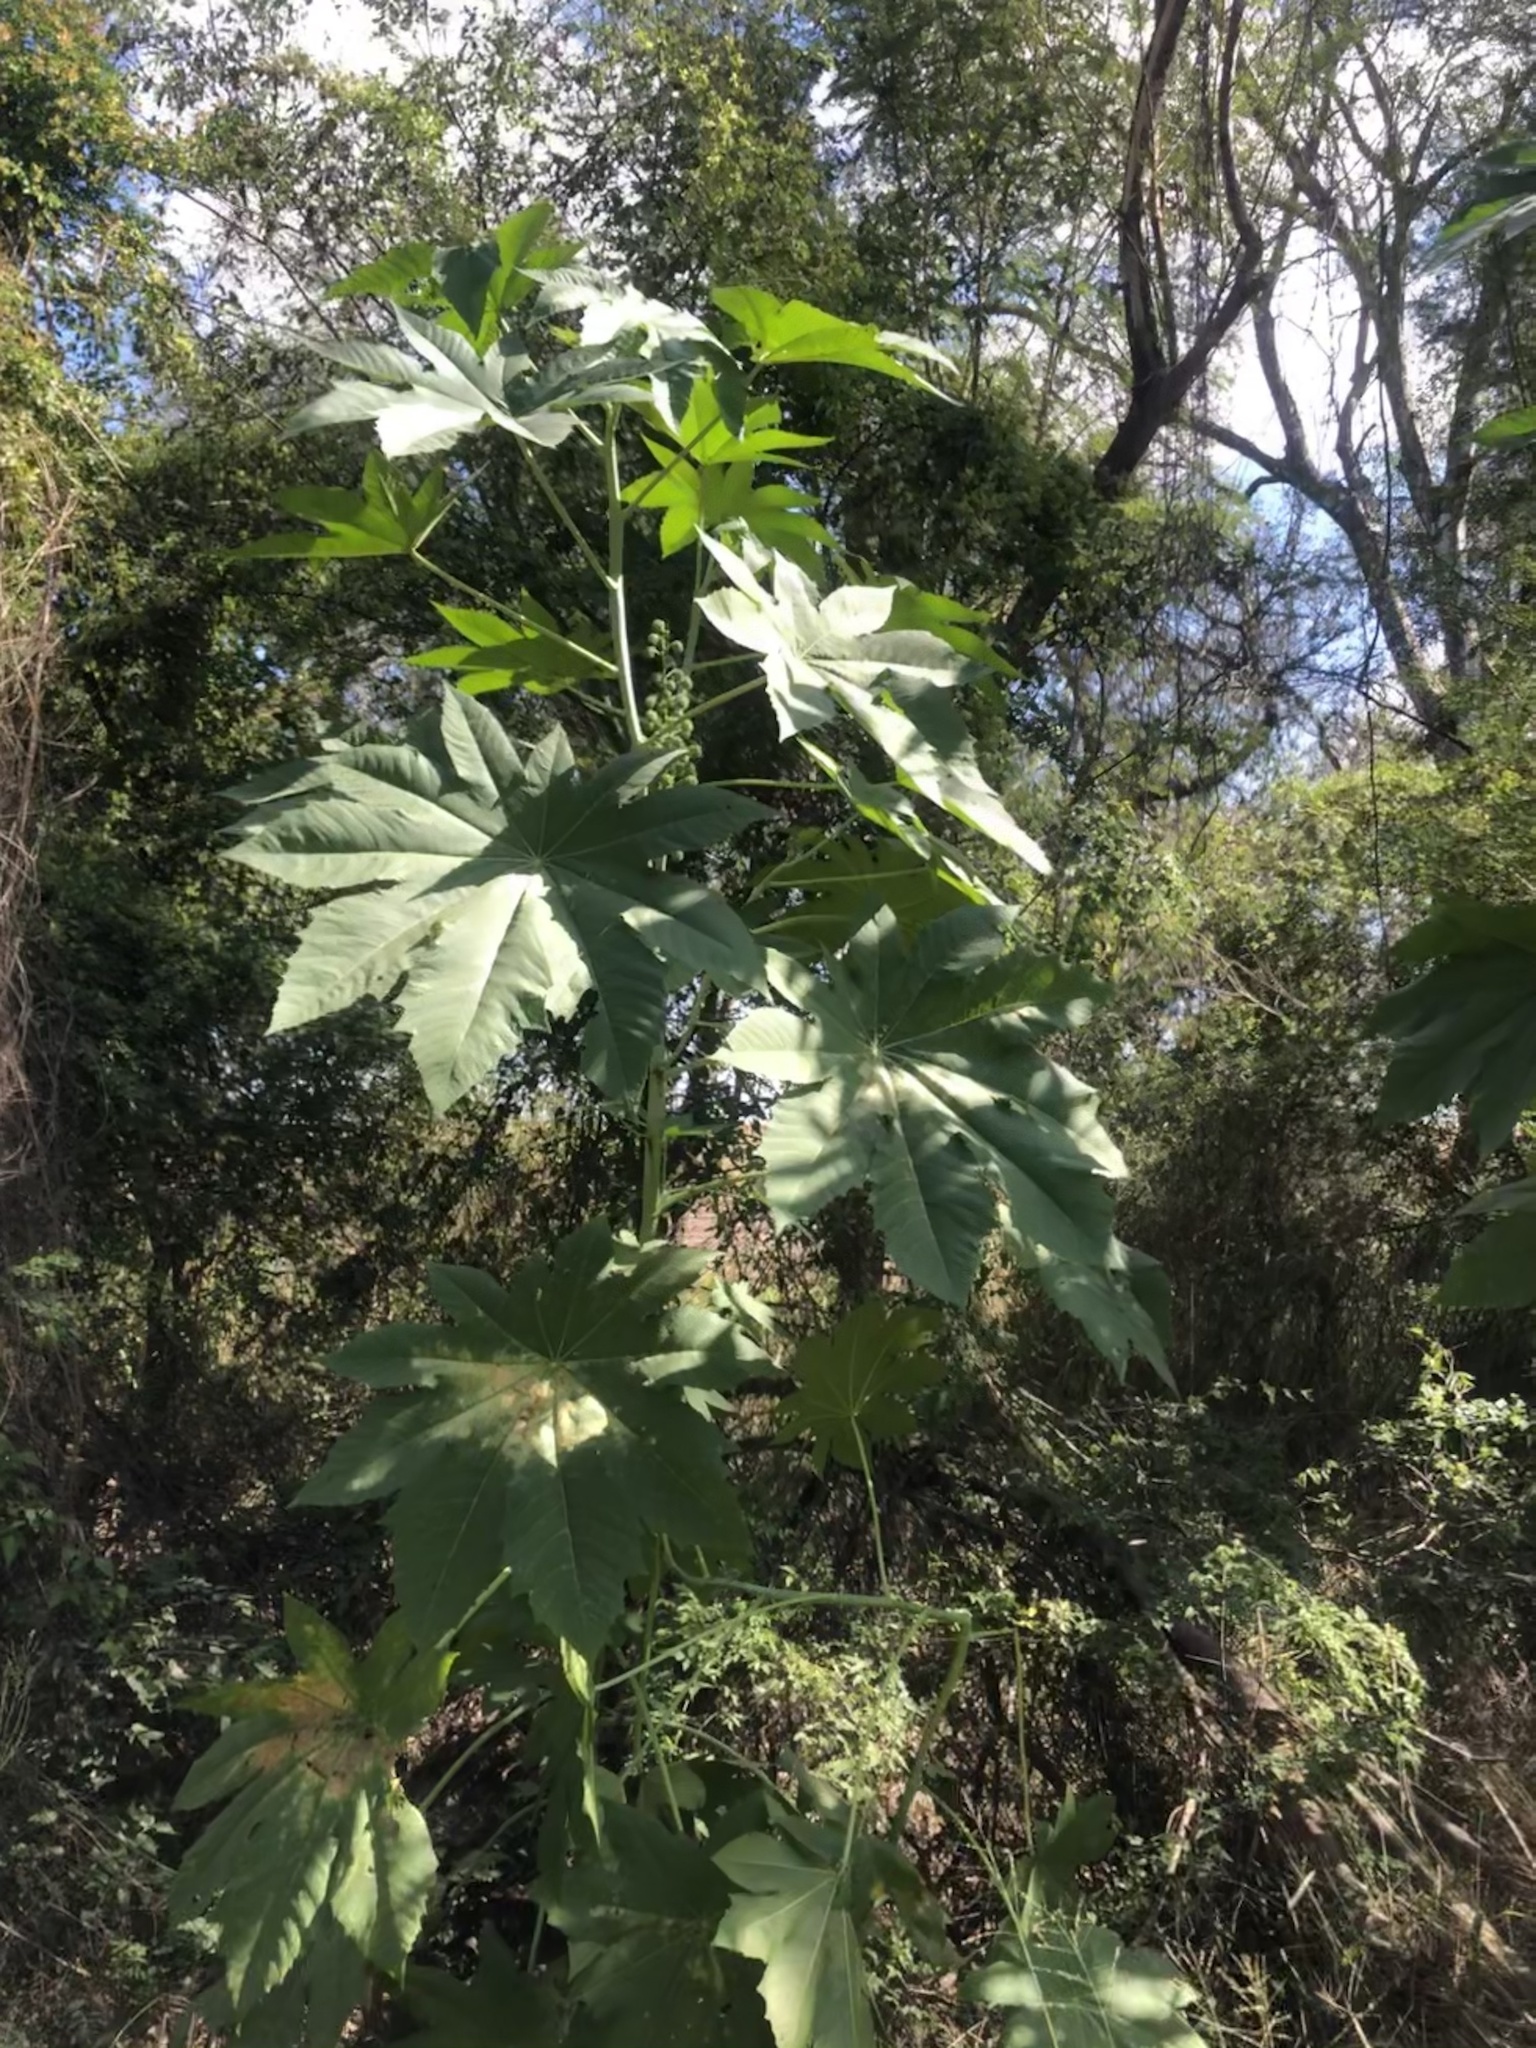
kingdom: Plantae
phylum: Tracheophyta
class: Magnoliopsida
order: Malpighiales
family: Euphorbiaceae
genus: Ricinus
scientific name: Ricinus communis
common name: Castor-oil-plant
